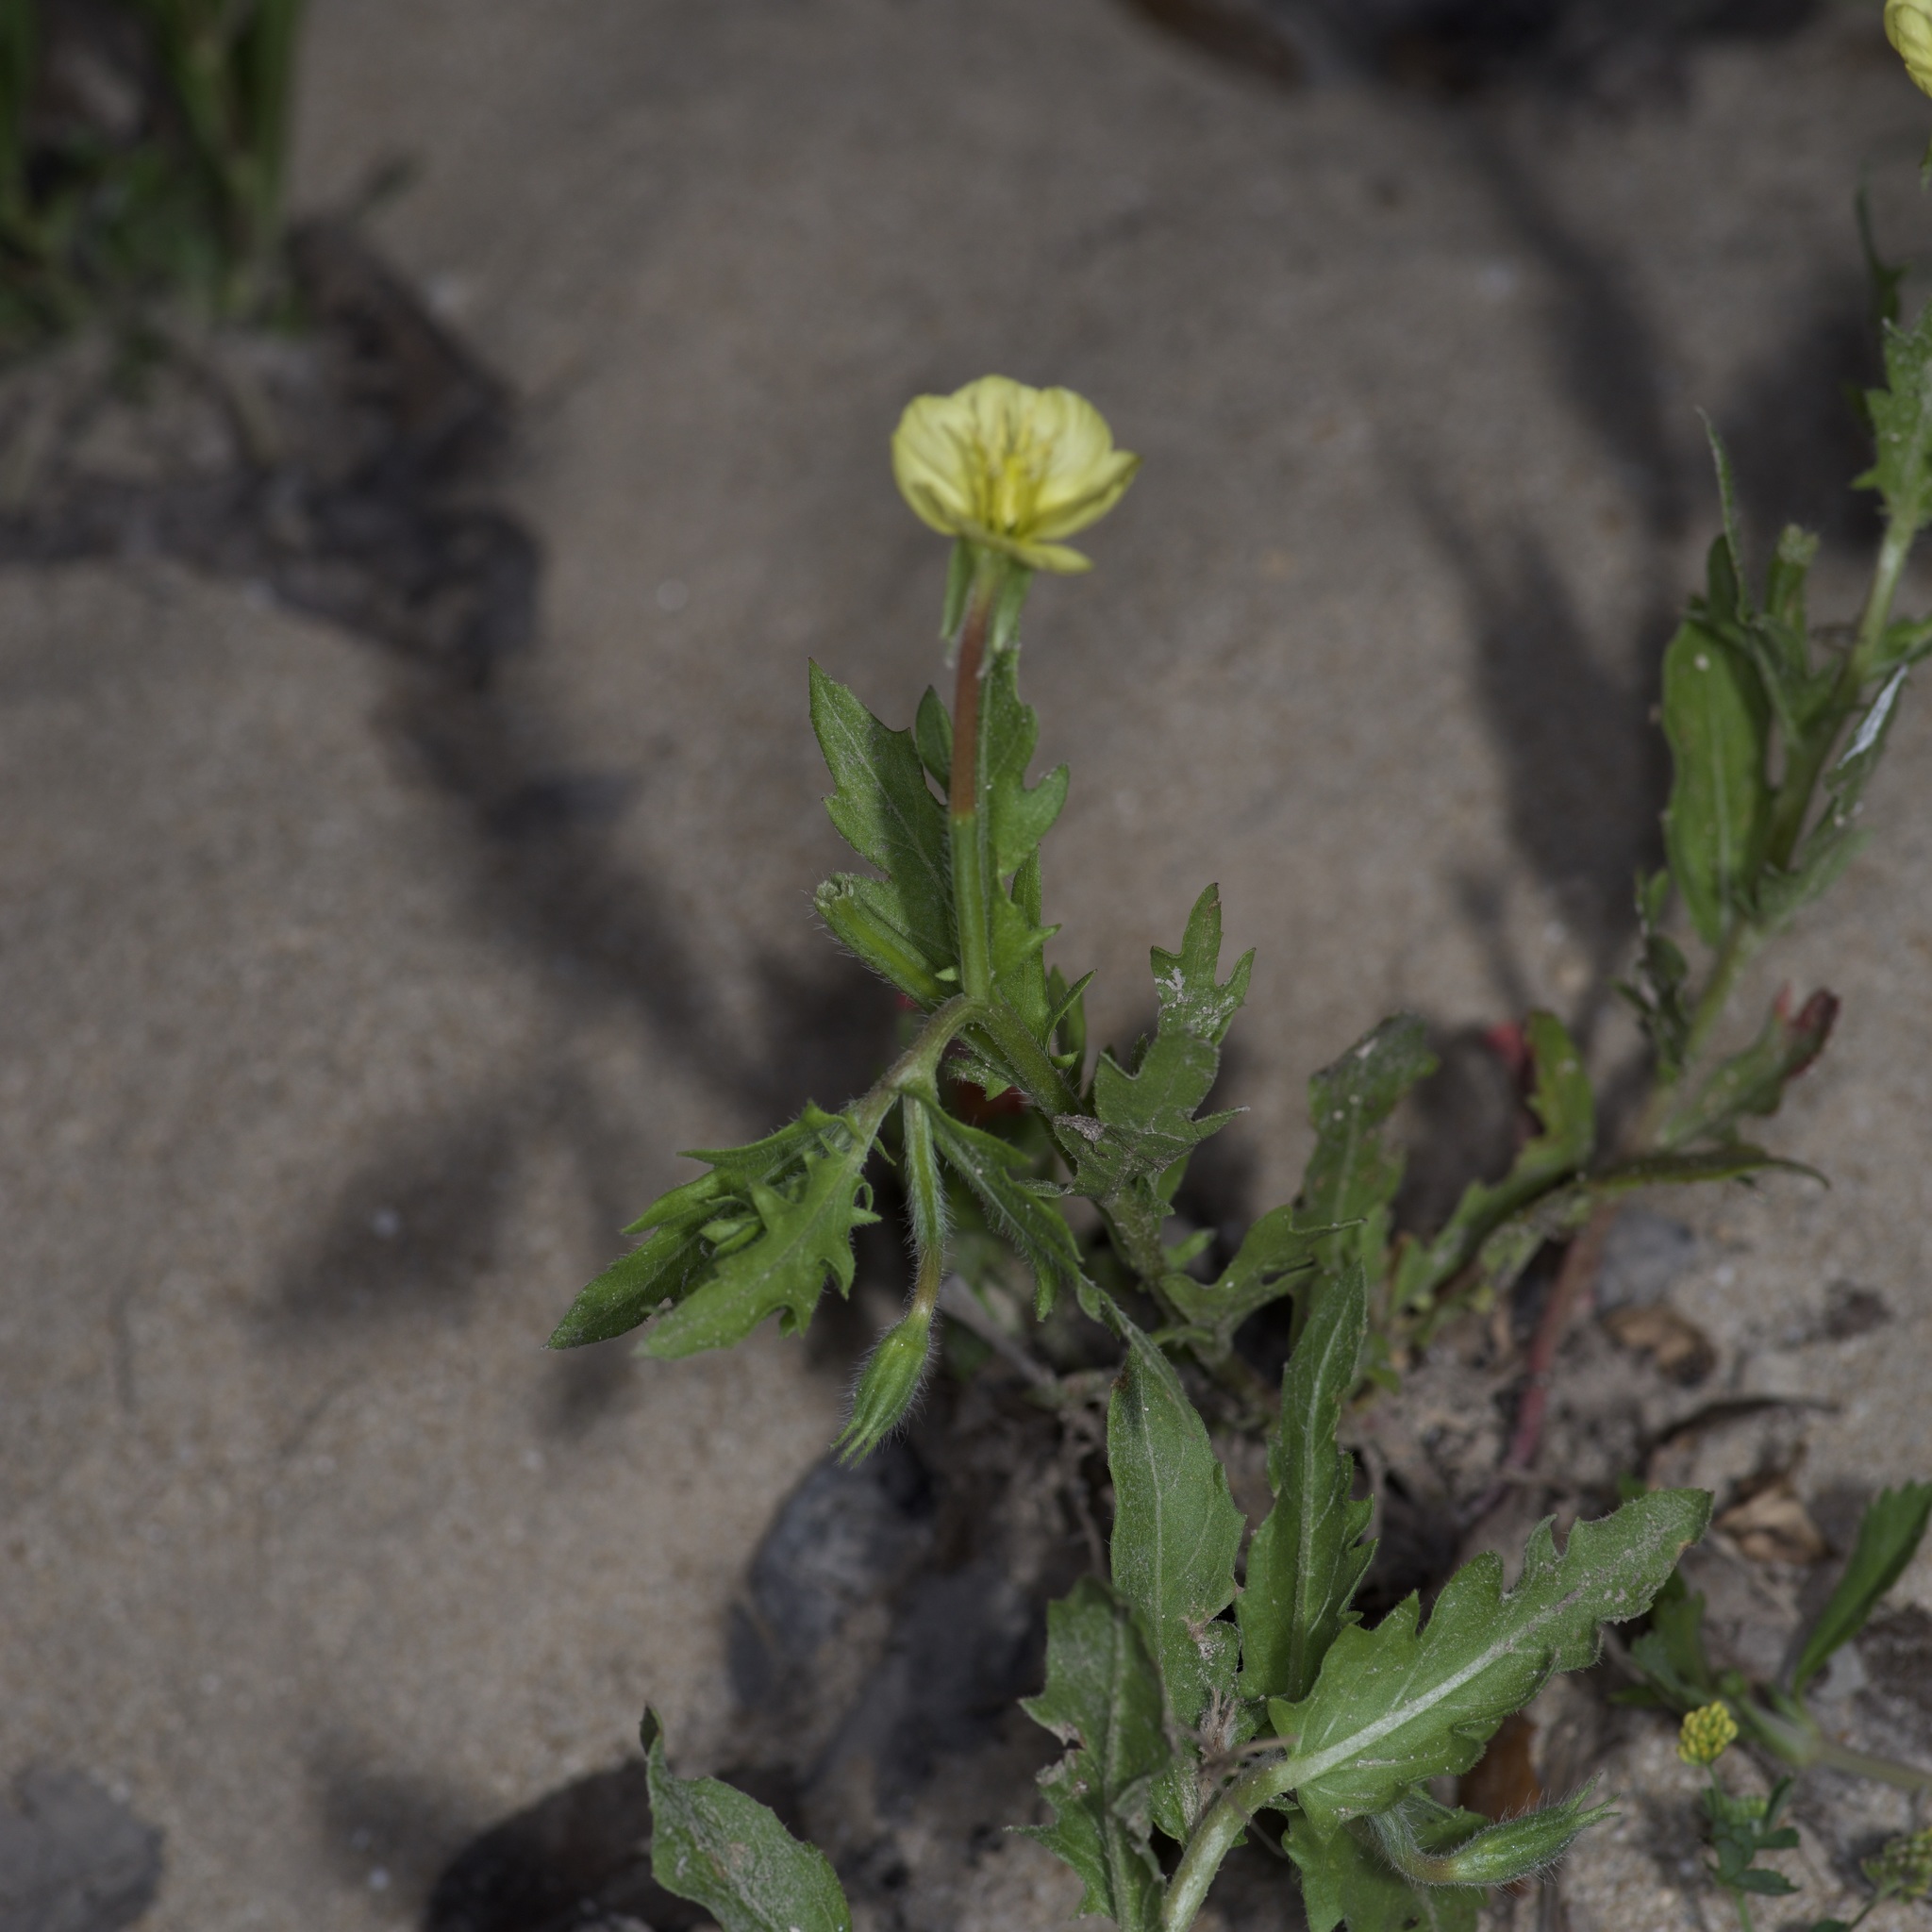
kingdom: Plantae
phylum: Tracheophyta
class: Magnoliopsida
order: Myrtales
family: Onagraceae
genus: Oenothera
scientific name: Oenothera laciniata
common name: Cut-leaved evening-primrose
